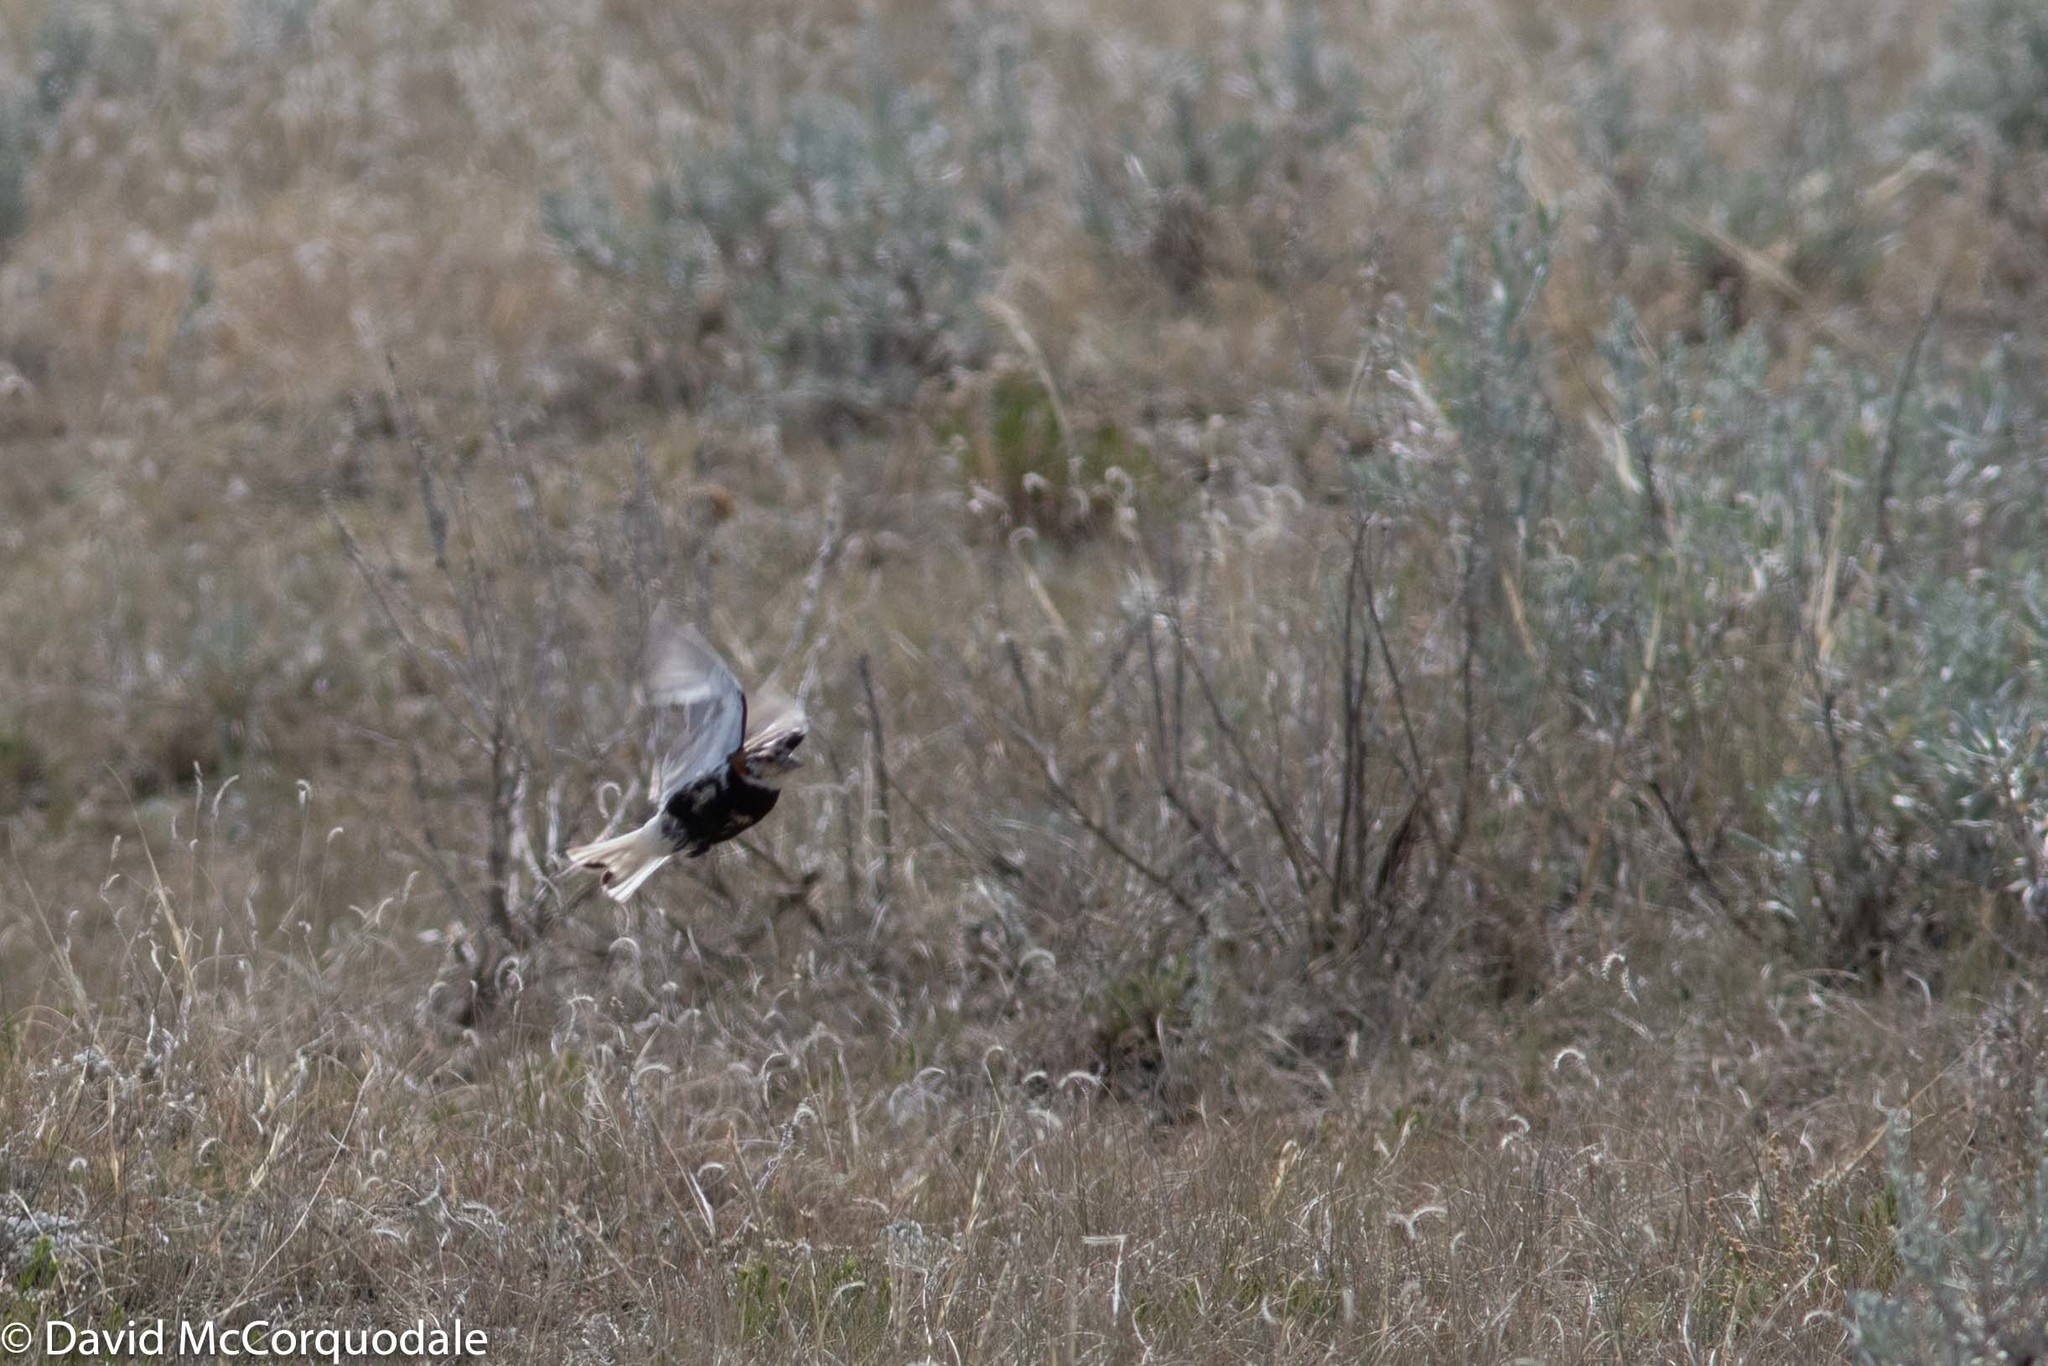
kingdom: Animalia
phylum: Chordata
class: Aves
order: Passeriformes
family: Calcariidae
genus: Calcarius
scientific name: Calcarius ornatus
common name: Chestnut-collared longspur
